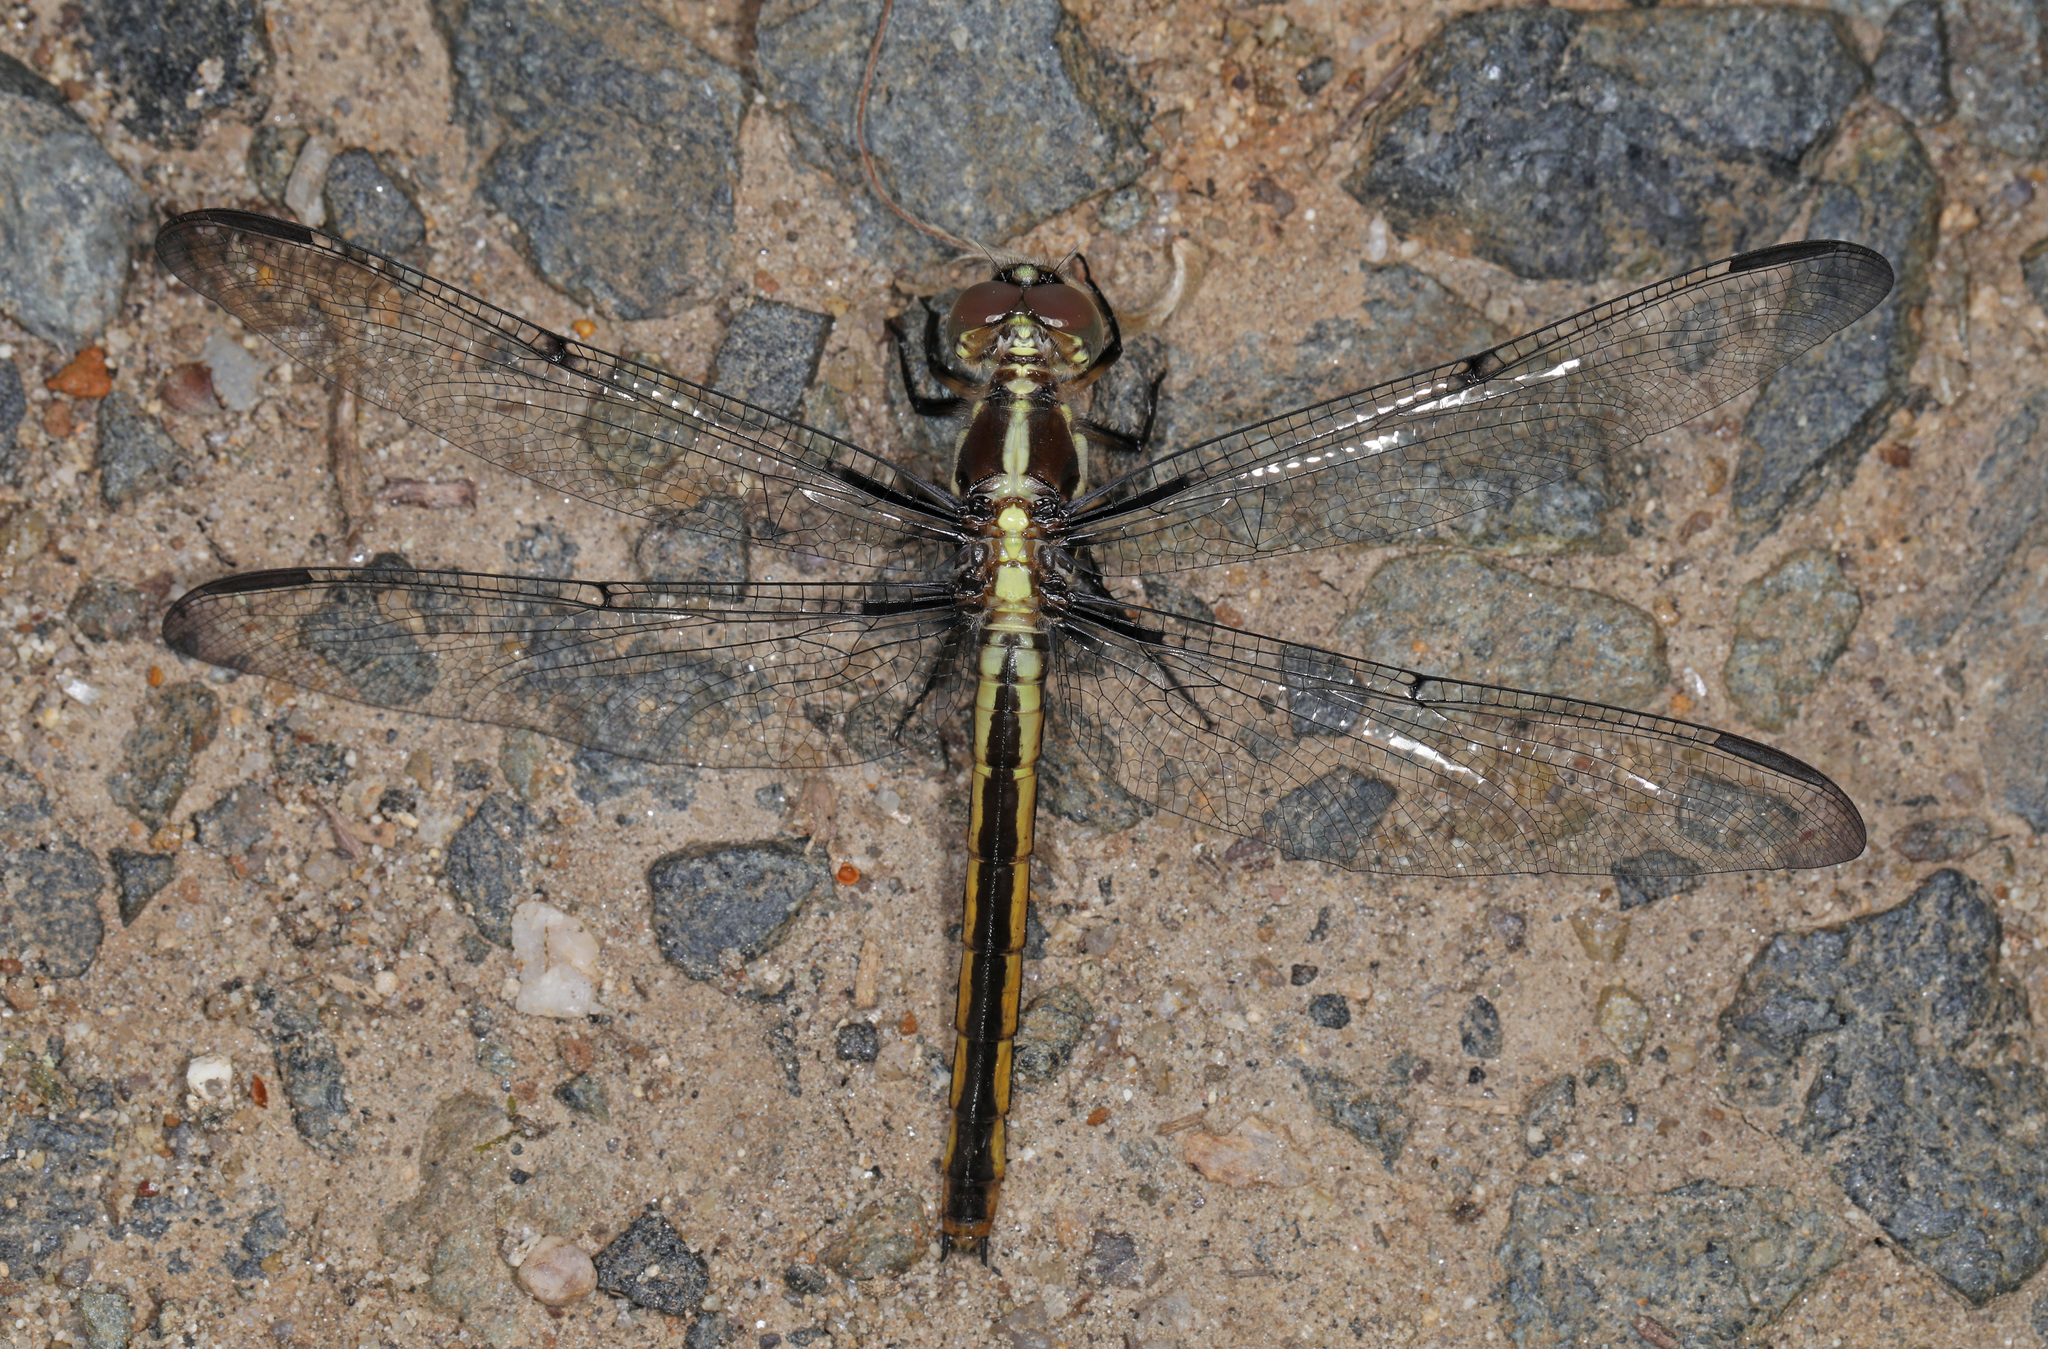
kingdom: Animalia
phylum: Arthropoda
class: Insecta
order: Odonata
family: Libellulidae
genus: Libellula
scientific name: Libellula incesta
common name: Slaty skimmer
